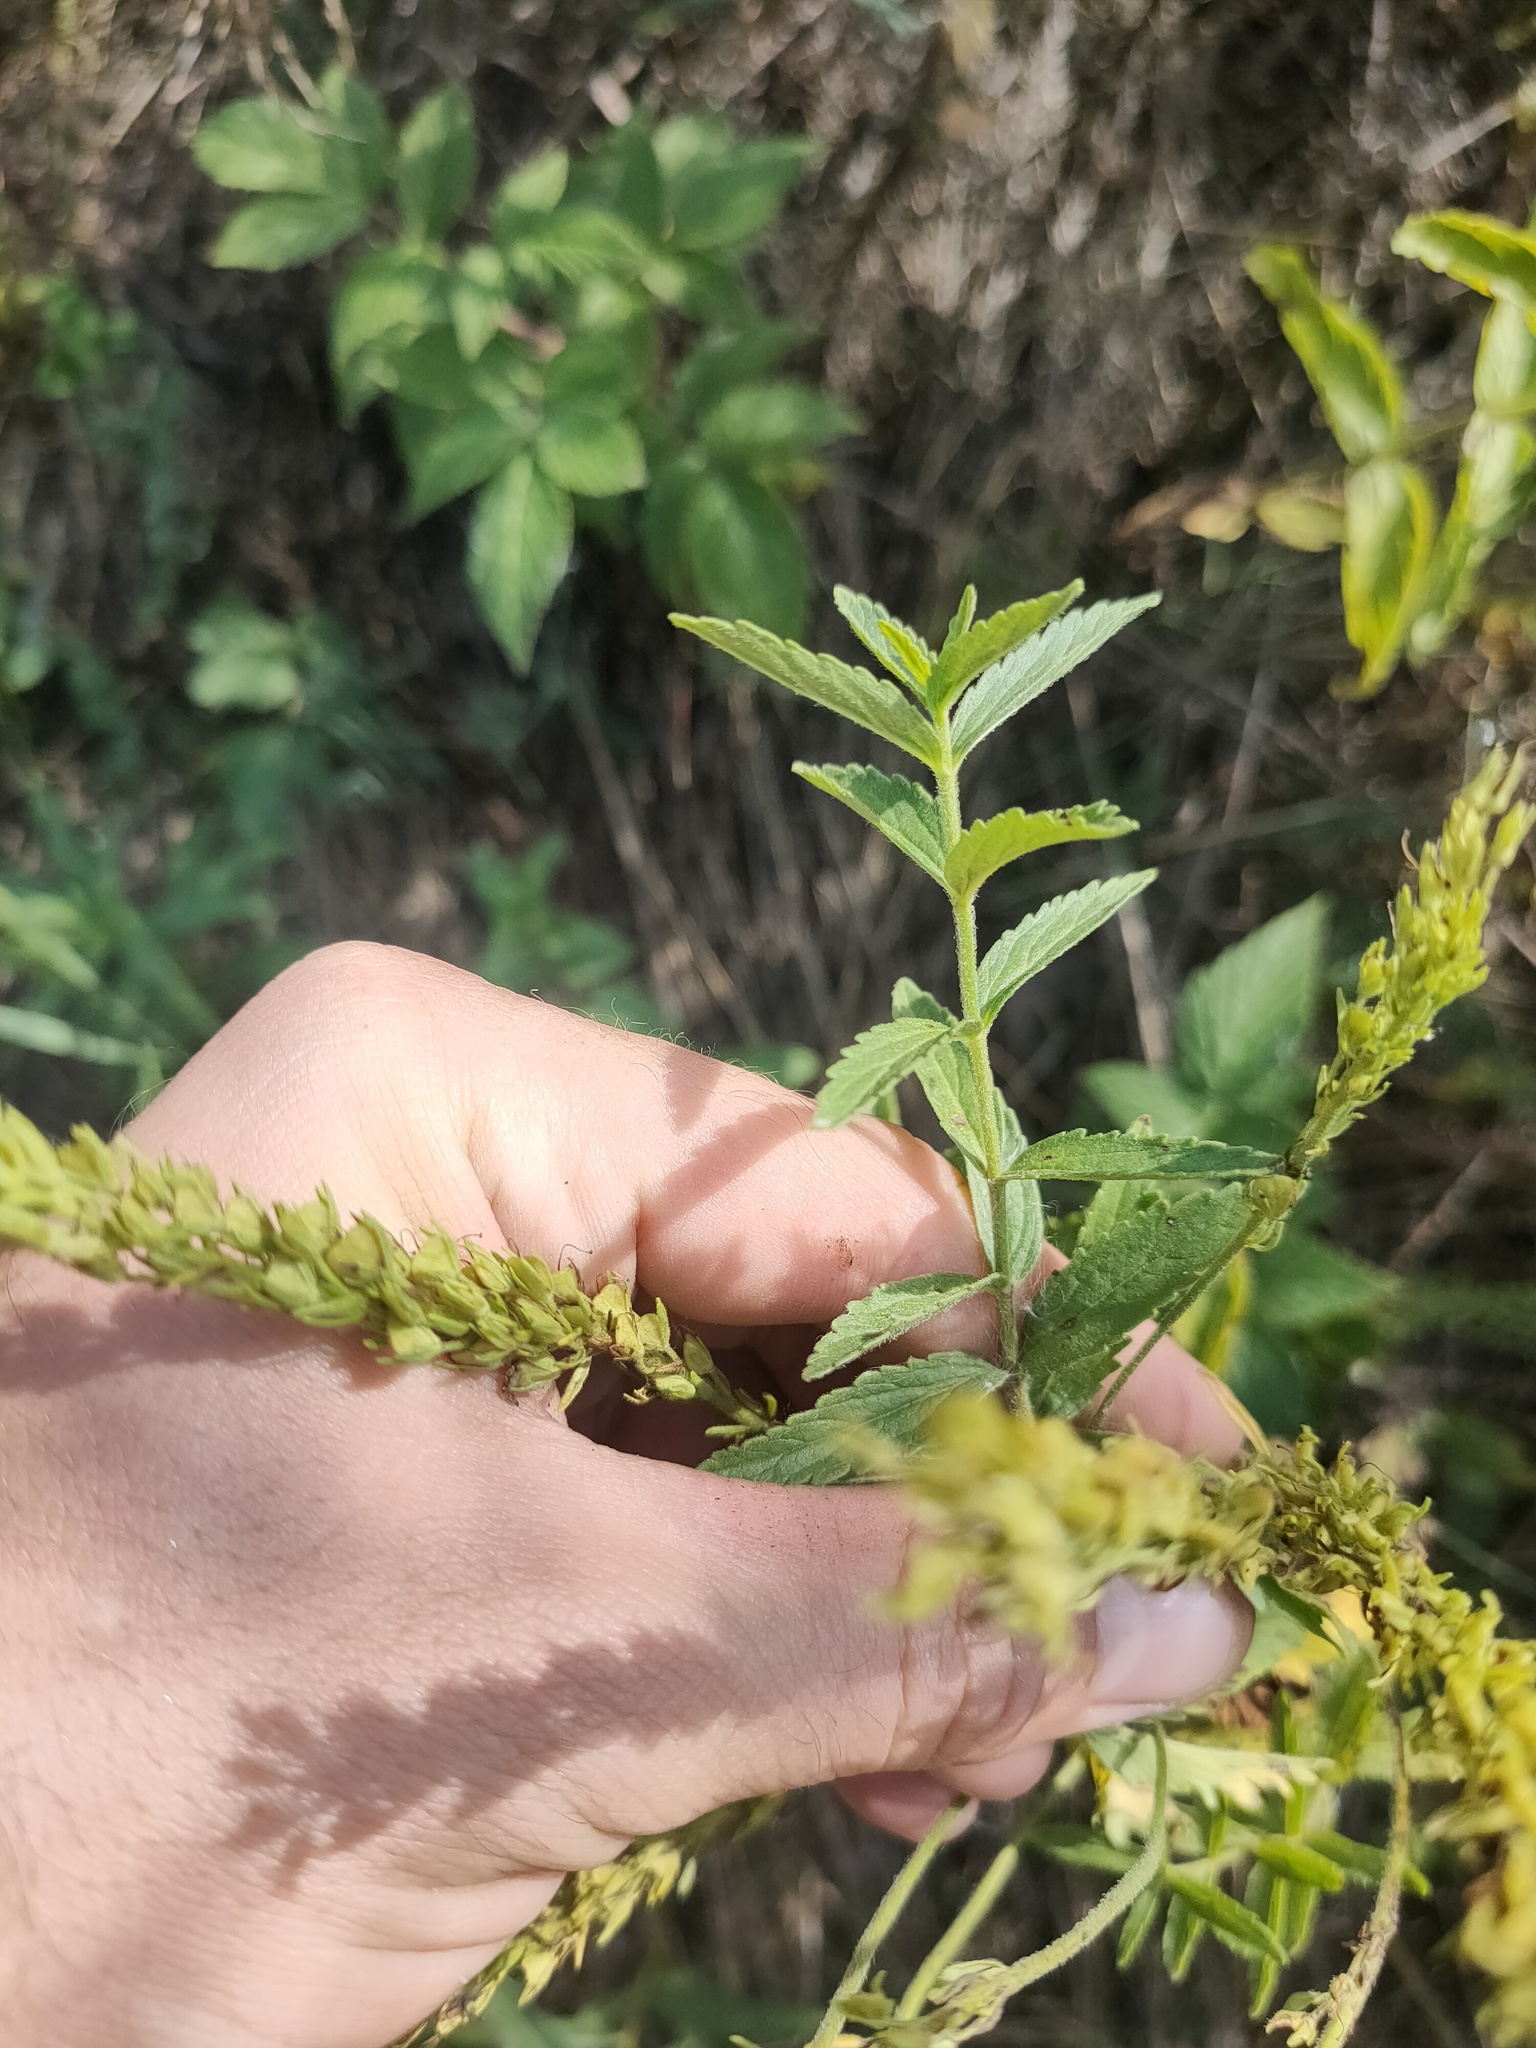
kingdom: Plantae
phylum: Tracheophyta
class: Magnoliopsida
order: Lamiales
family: Plantaginaceae
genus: Veronica
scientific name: Veronica teucrium
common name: Large speedwell
